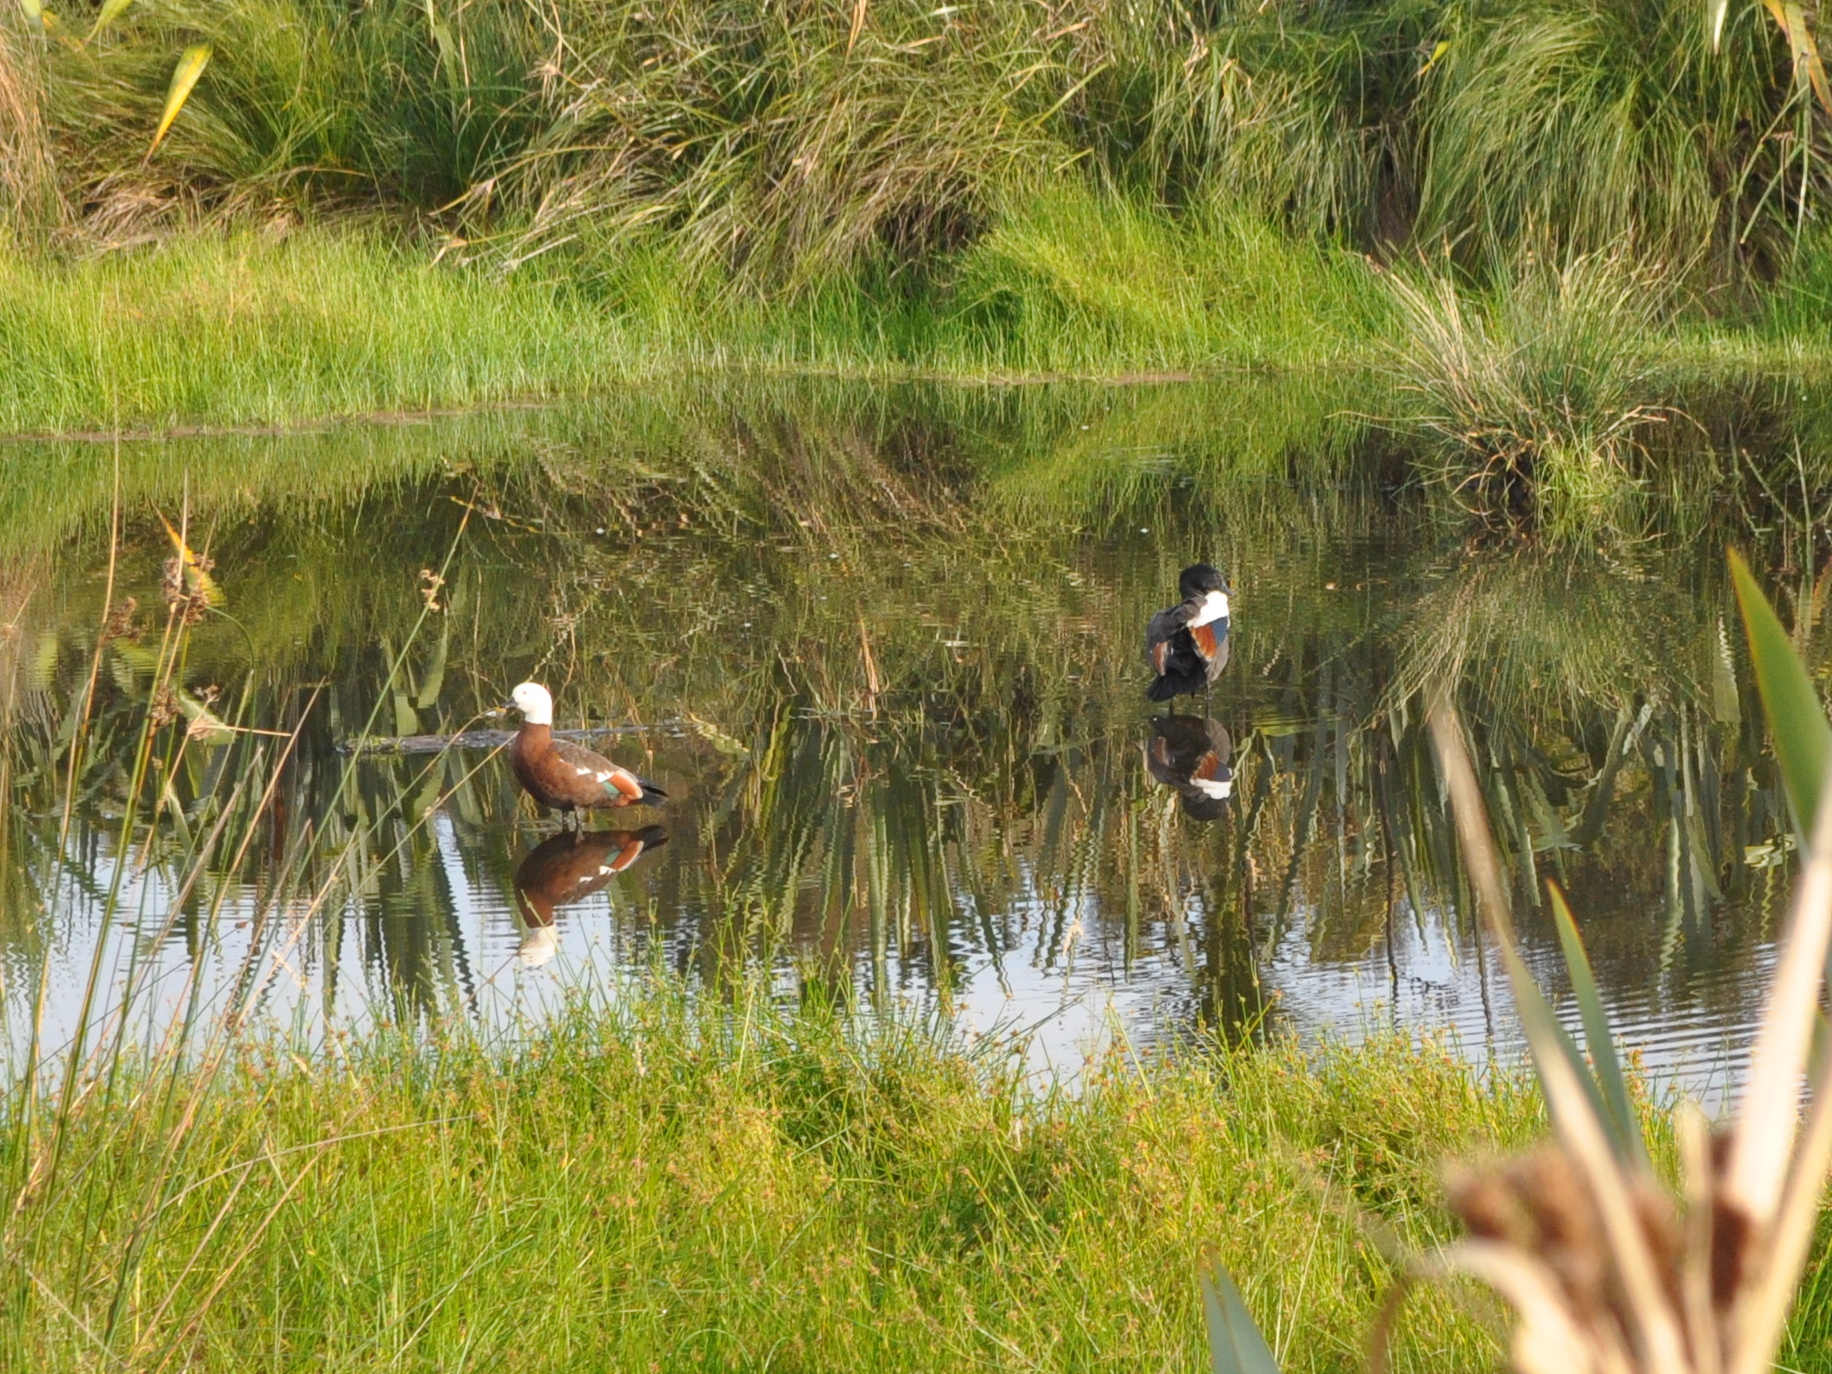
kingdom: Animalia
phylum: Chordata
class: Aves
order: Anseriformes
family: Anatidae
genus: Tadorna
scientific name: Tadorna variegata
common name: Paradise shelduck
